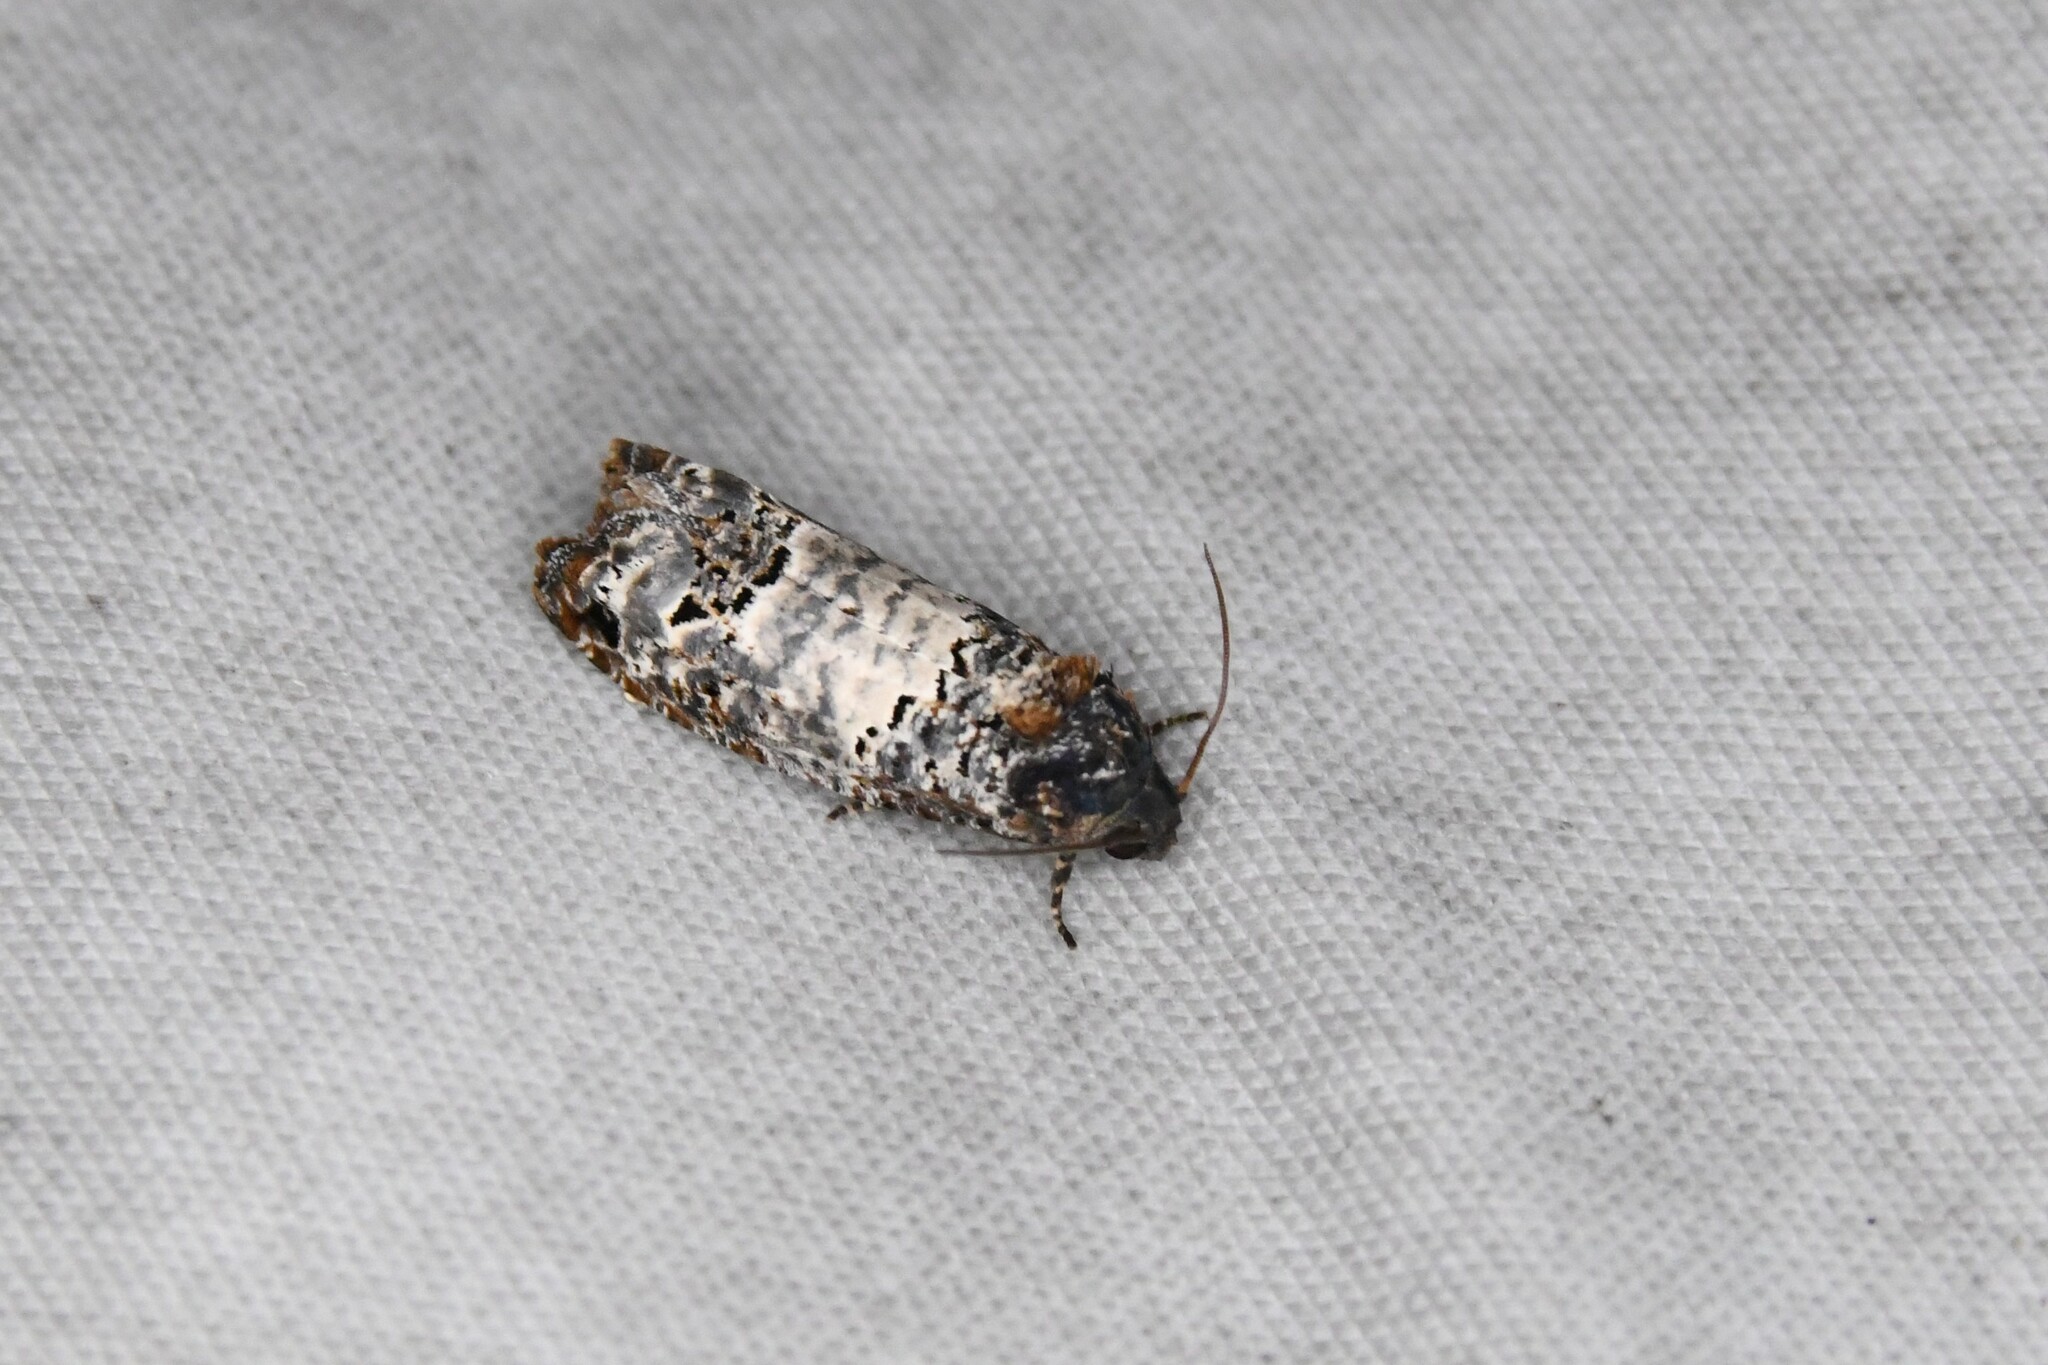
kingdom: Animalia
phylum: Arthropoda
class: Insecta
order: Lepidoptera
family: Tortricidae
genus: Epiblema
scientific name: Epiblema carolinana
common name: Gray-blotched epiblema moth
